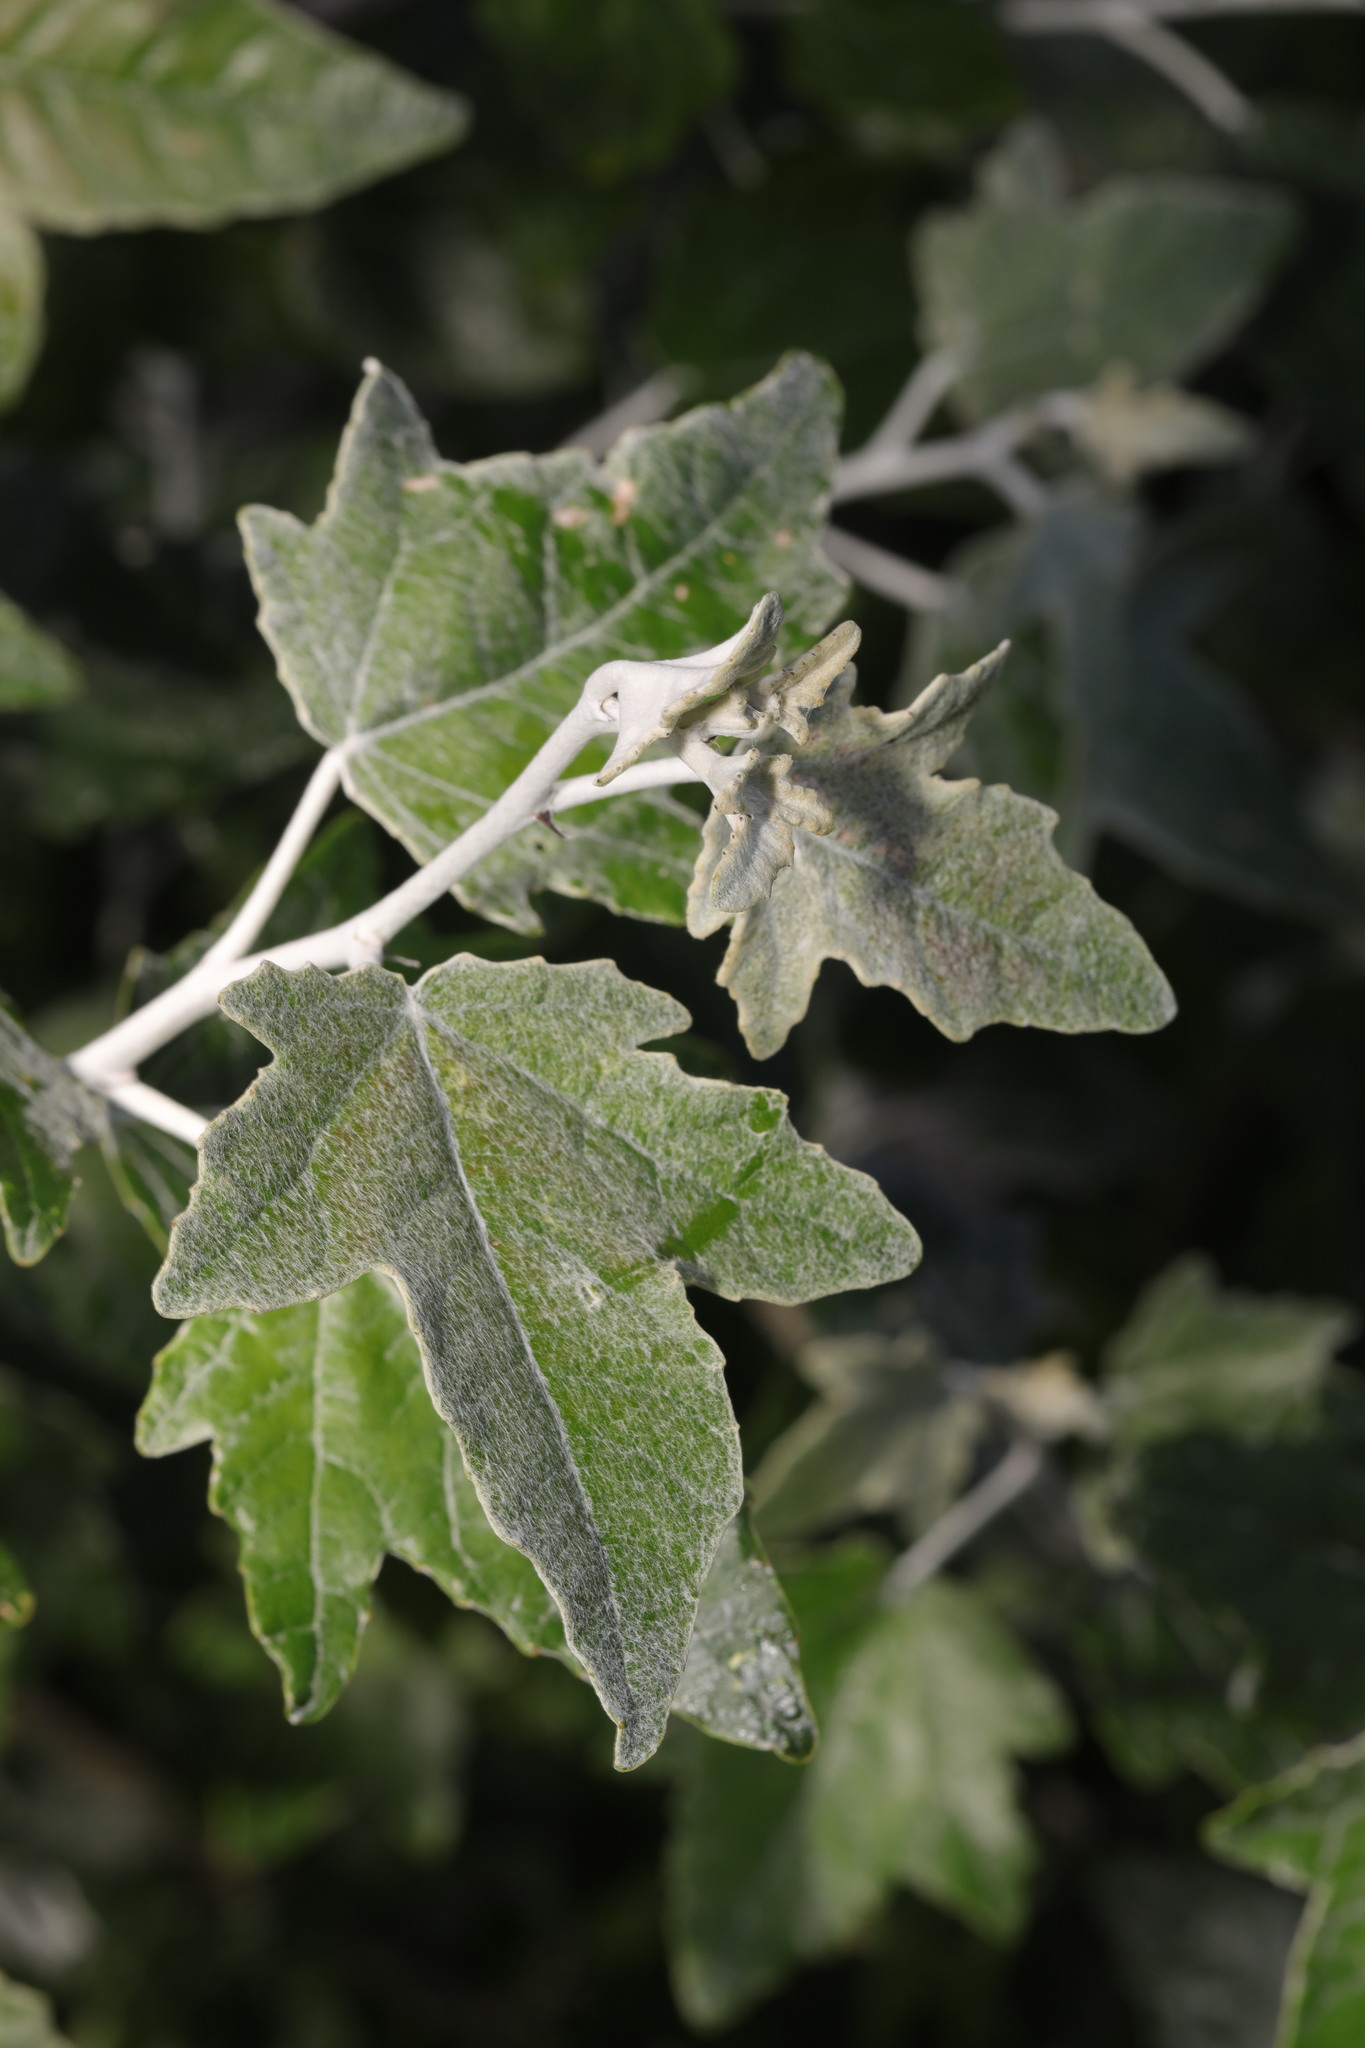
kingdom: Plantae
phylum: Tracheophyta
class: Magnoliopsida
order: Malpighiales
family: Salicaceae
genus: Populus
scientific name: Populus alba
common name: White poplar
